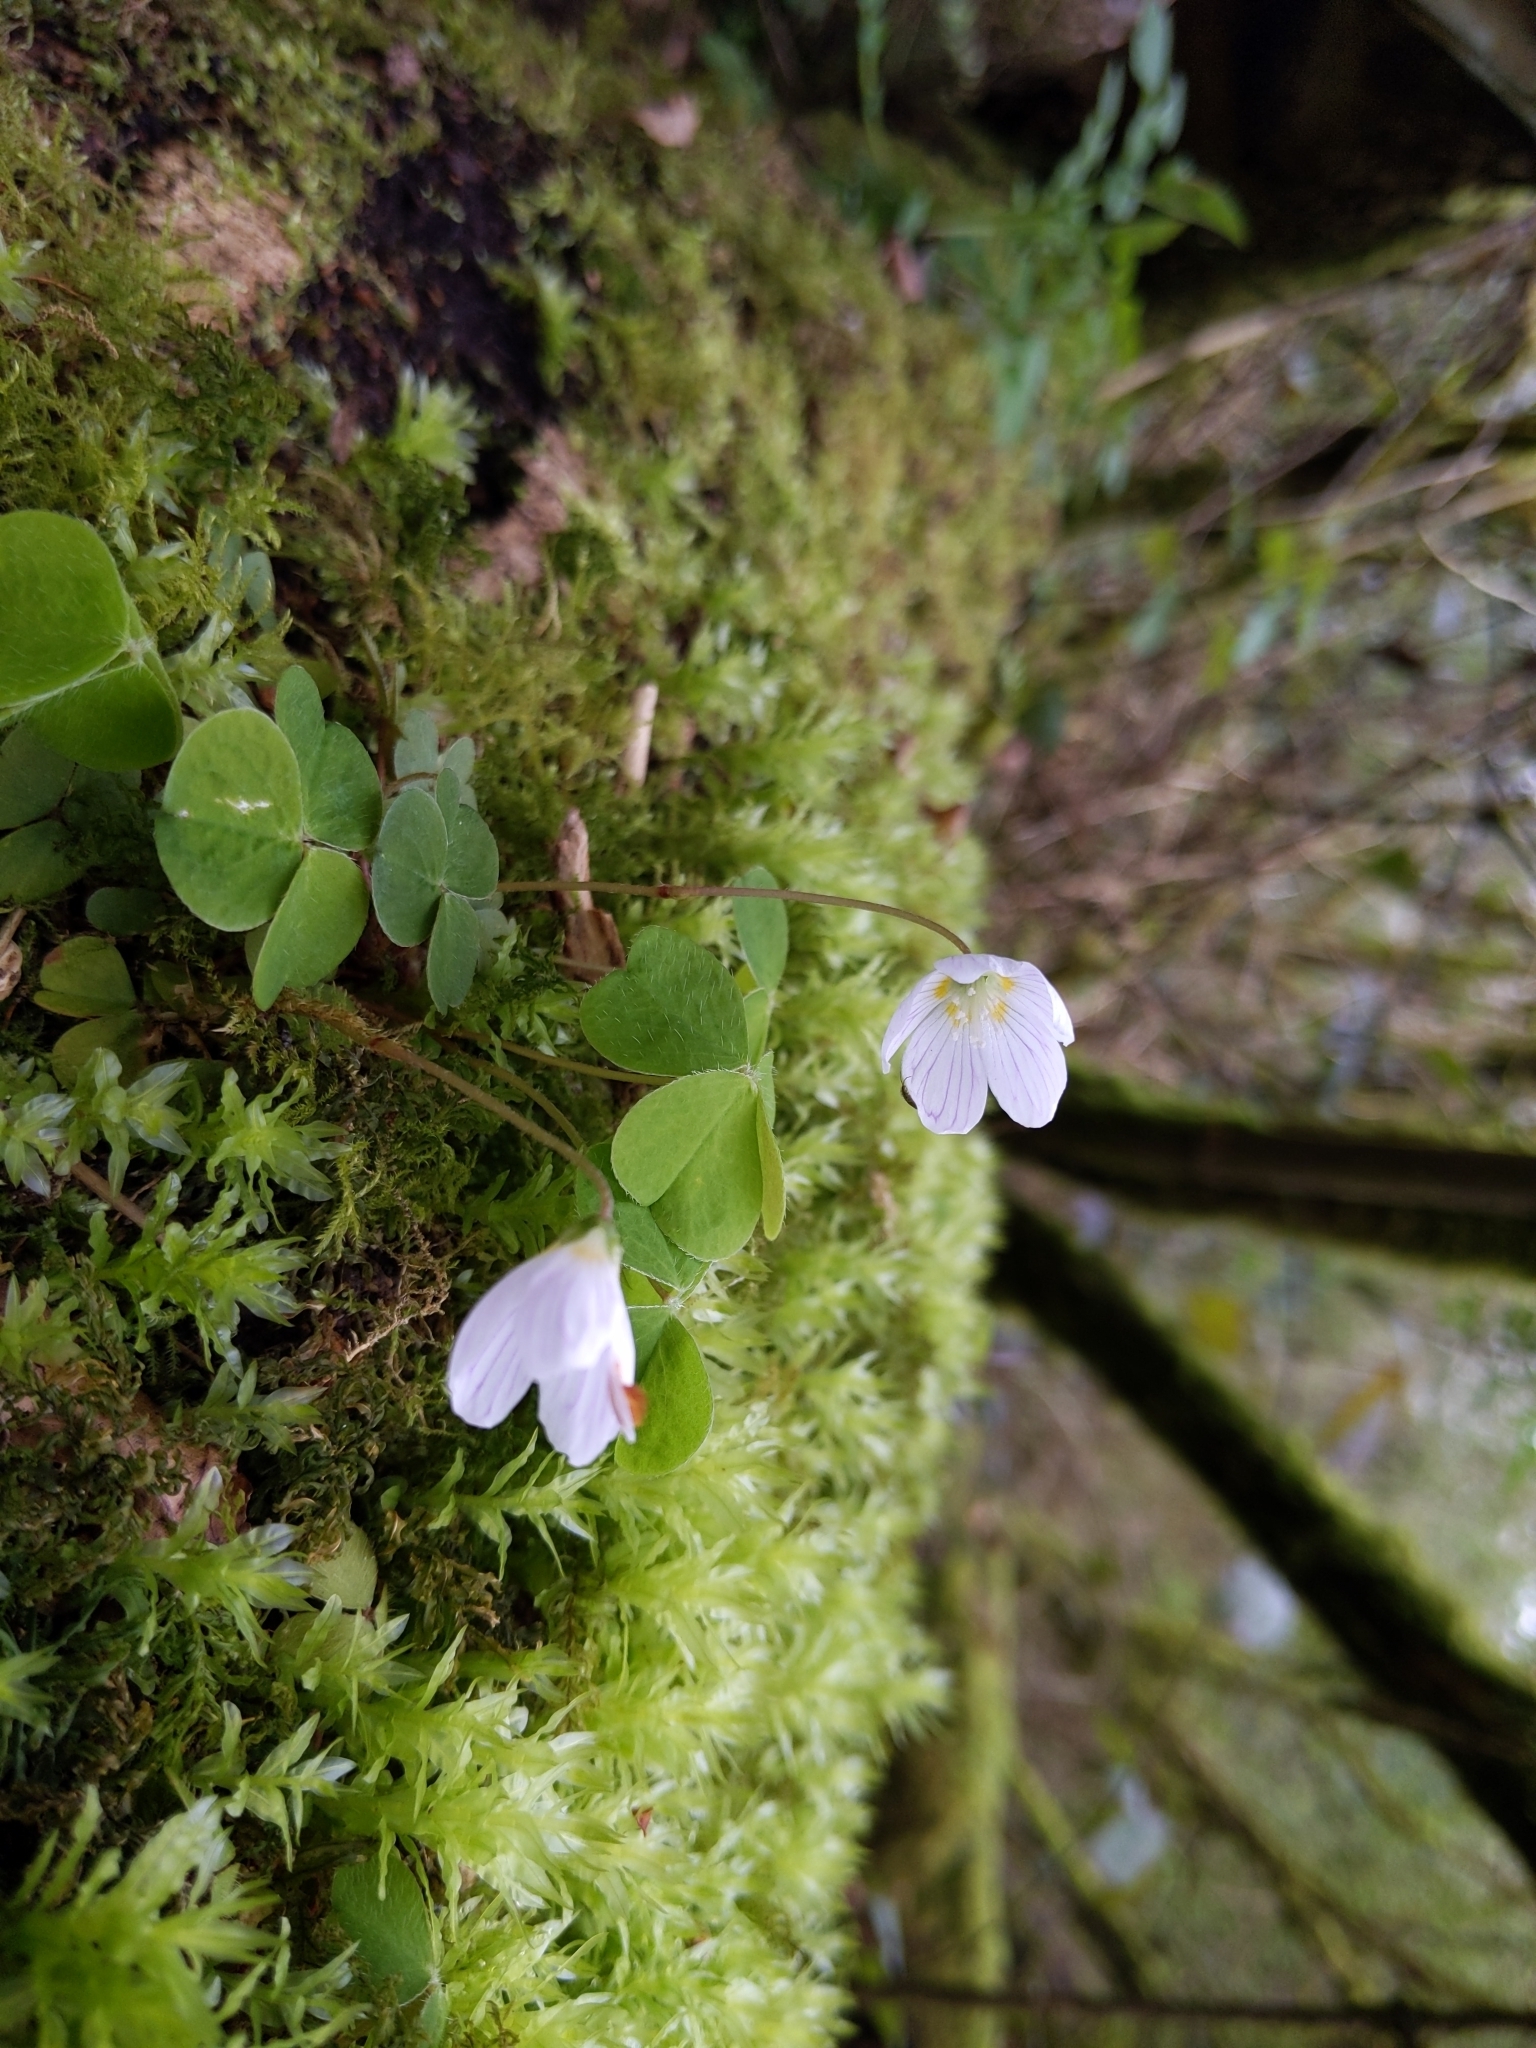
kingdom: Plantae
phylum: Tracheophyta
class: Magnoliopsida
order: Oxalidales
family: Oxalidaceae
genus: Oxalis
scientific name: Oxalis acetosella
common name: Wood-sorrel
